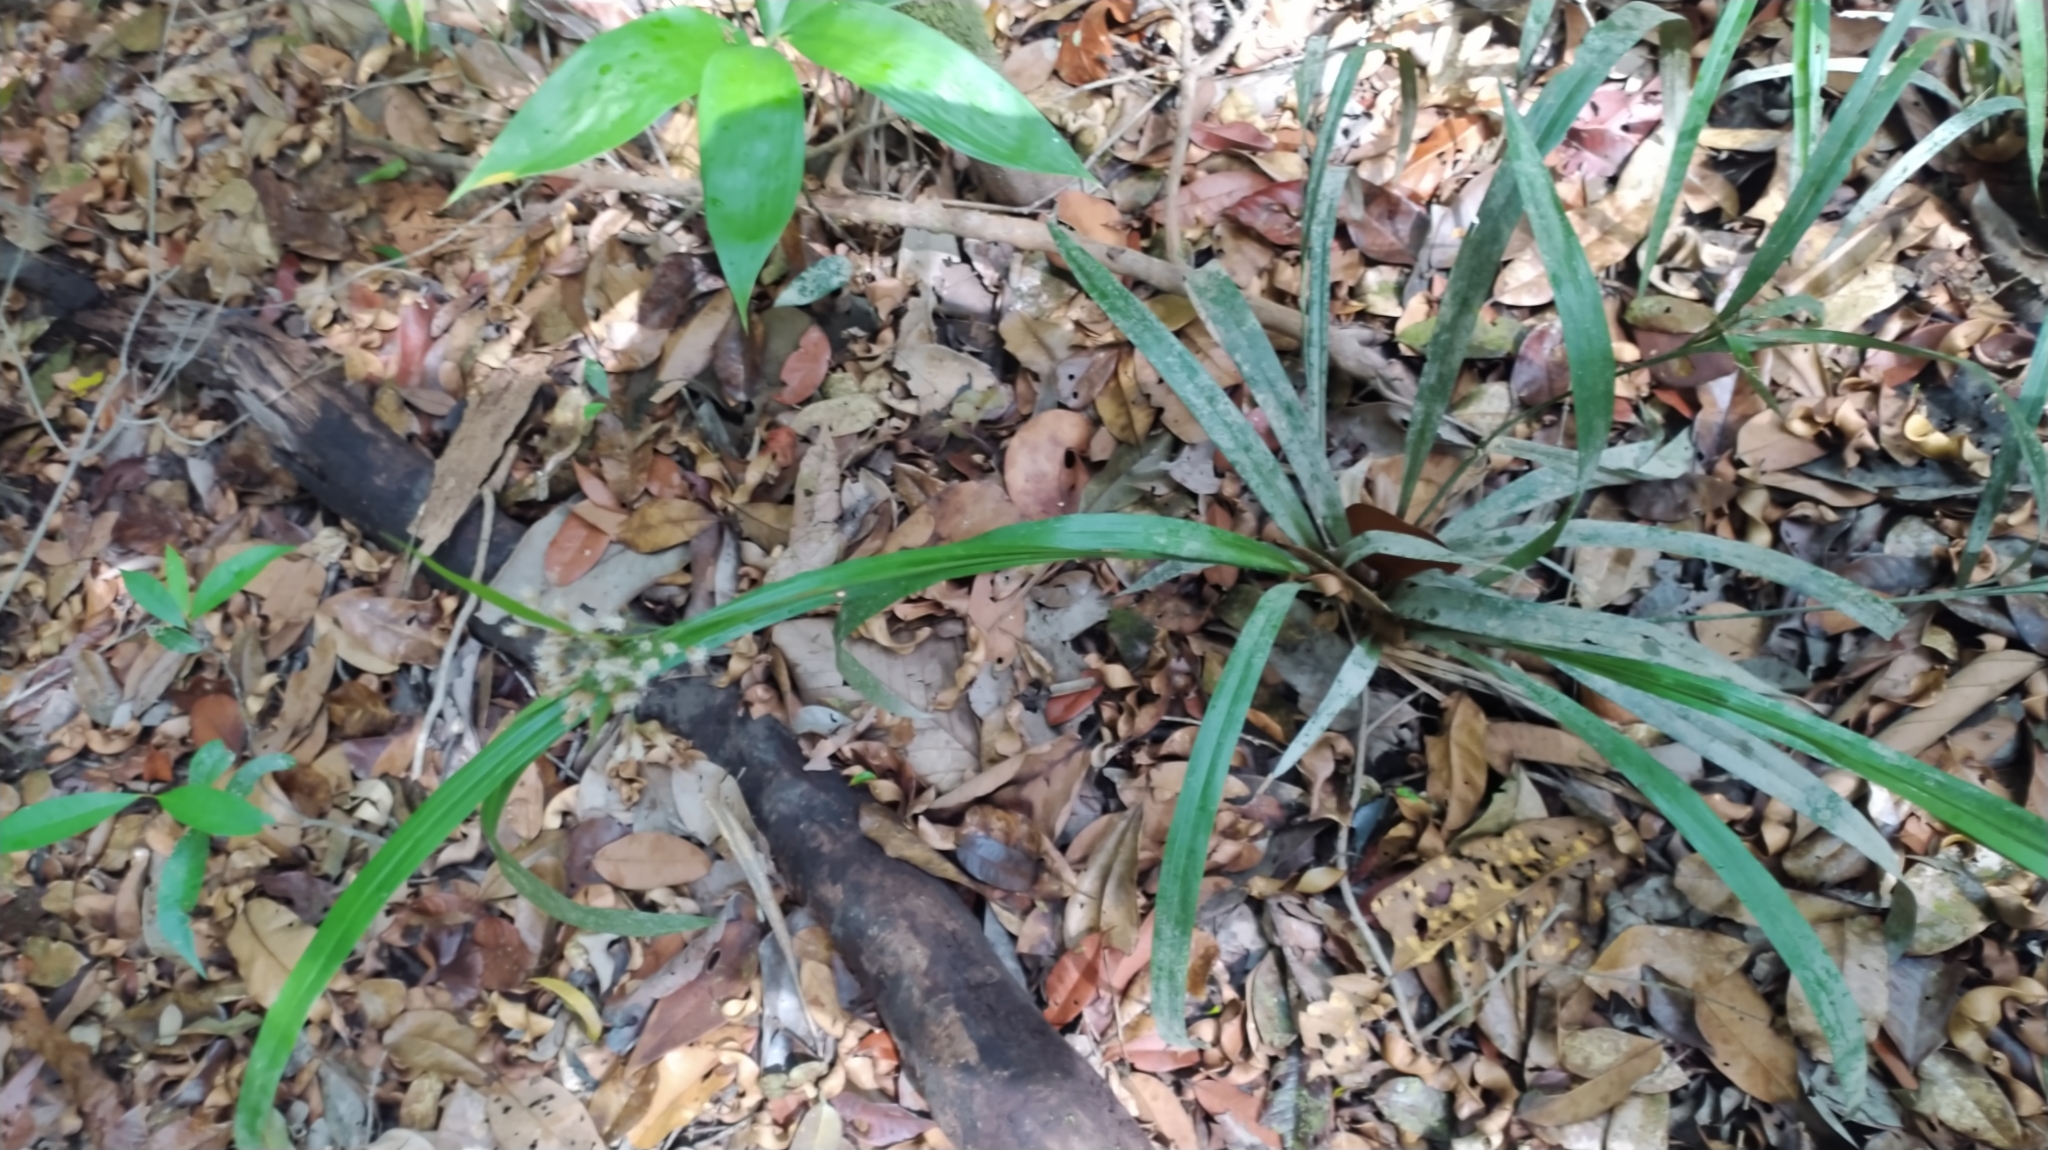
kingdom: Plantae
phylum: Tracheophyta
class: Liliopsida
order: Poales
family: Cyperaceae
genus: Hypolytrum
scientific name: Hypolytrum longifolium
